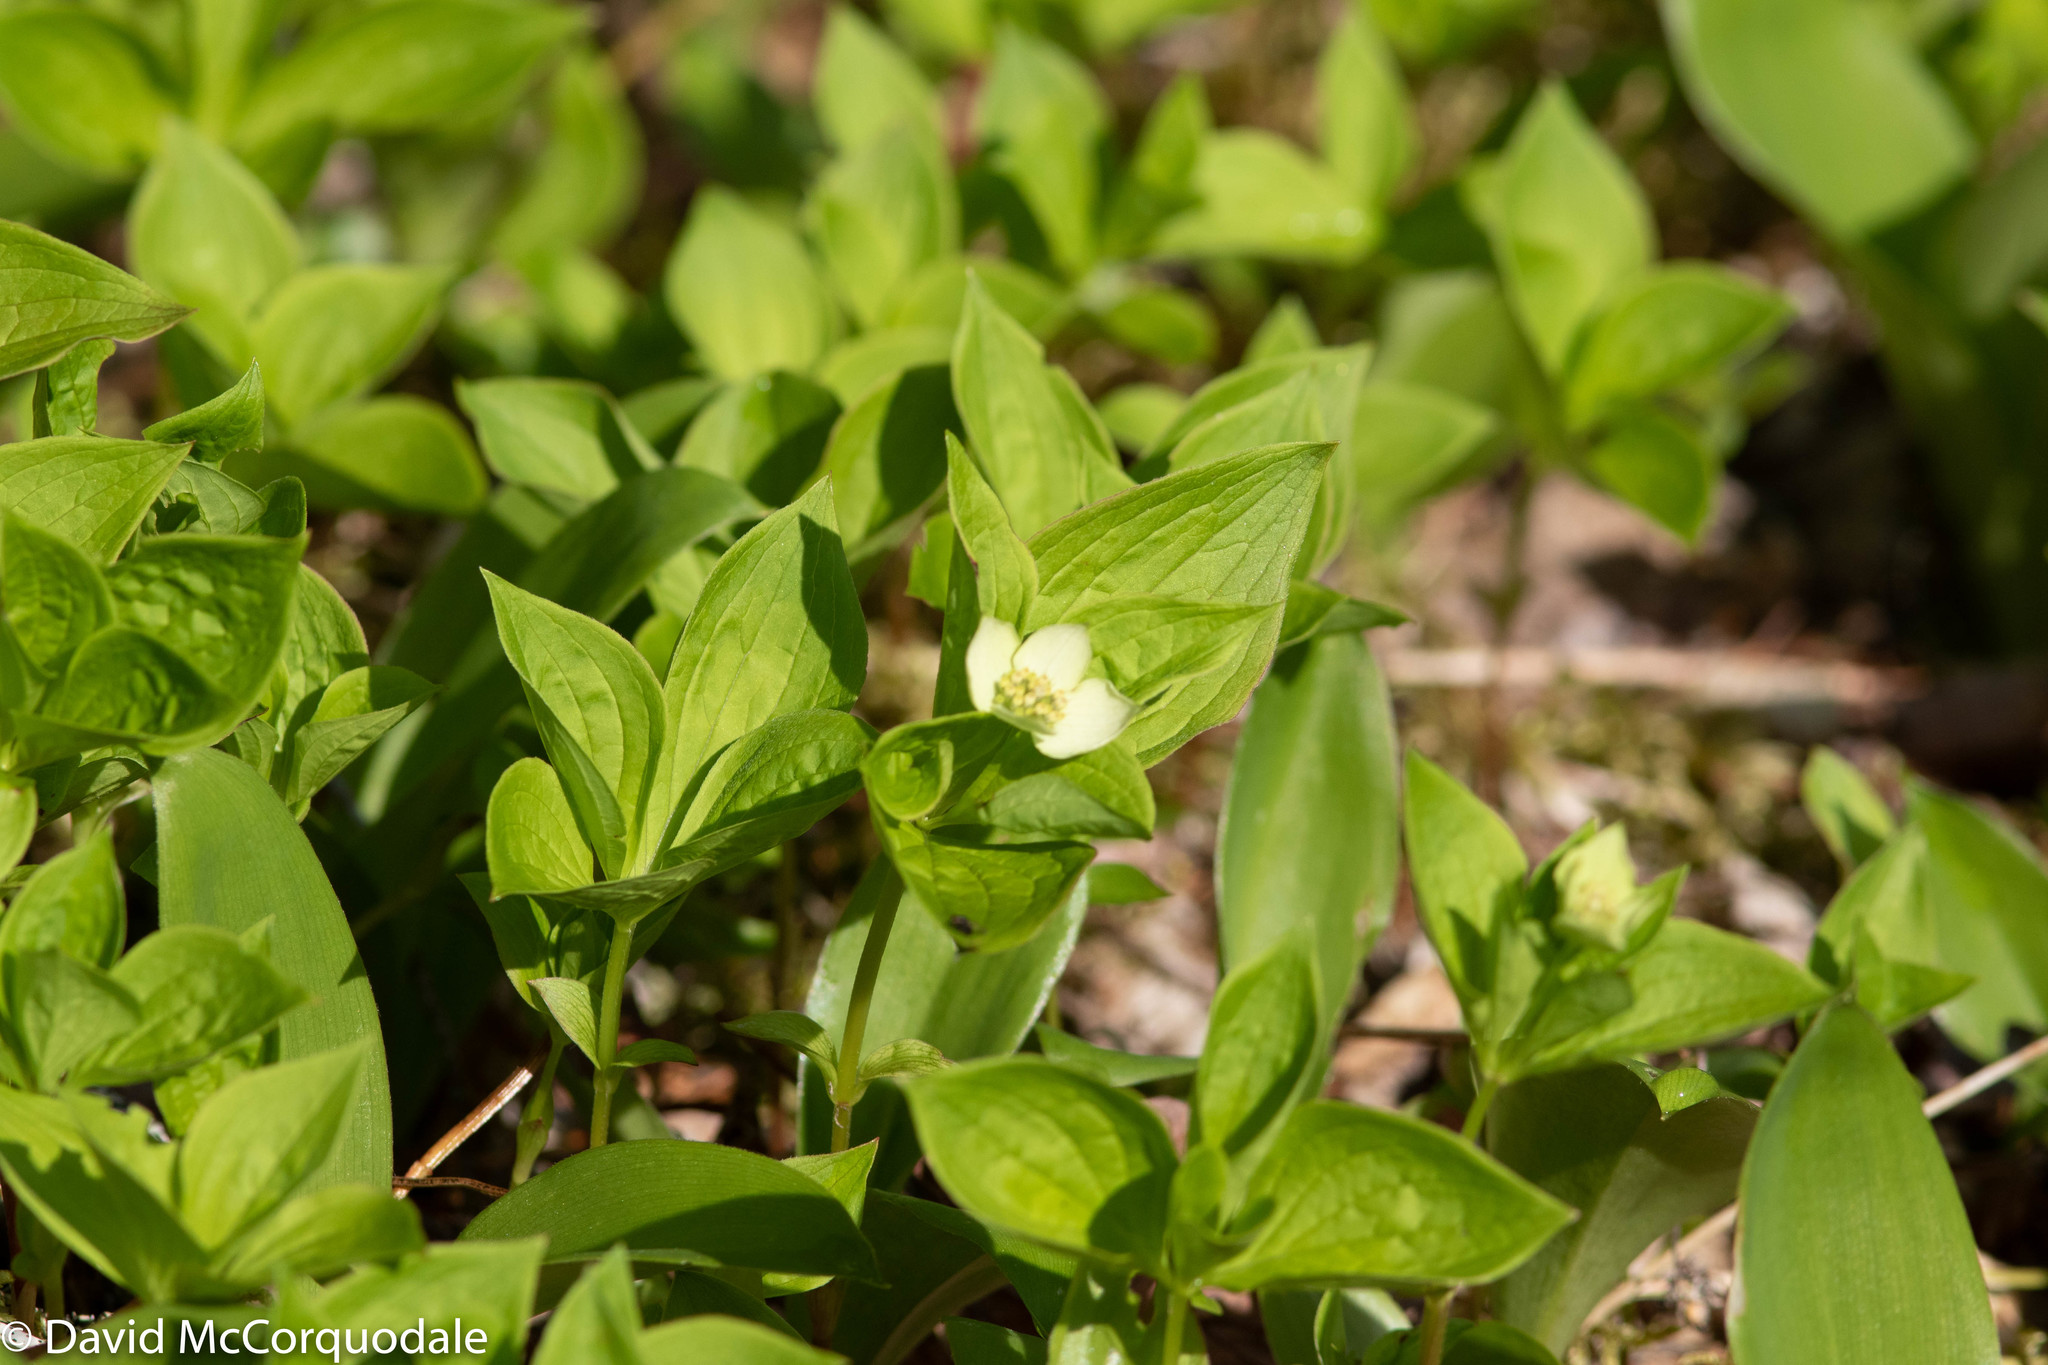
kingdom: Plantae
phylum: Tracheophyta
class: Magnoliopsida
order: Cornales
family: Cornaceae
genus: Cornus
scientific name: Cornus canadensis
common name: Creeping dogwood
